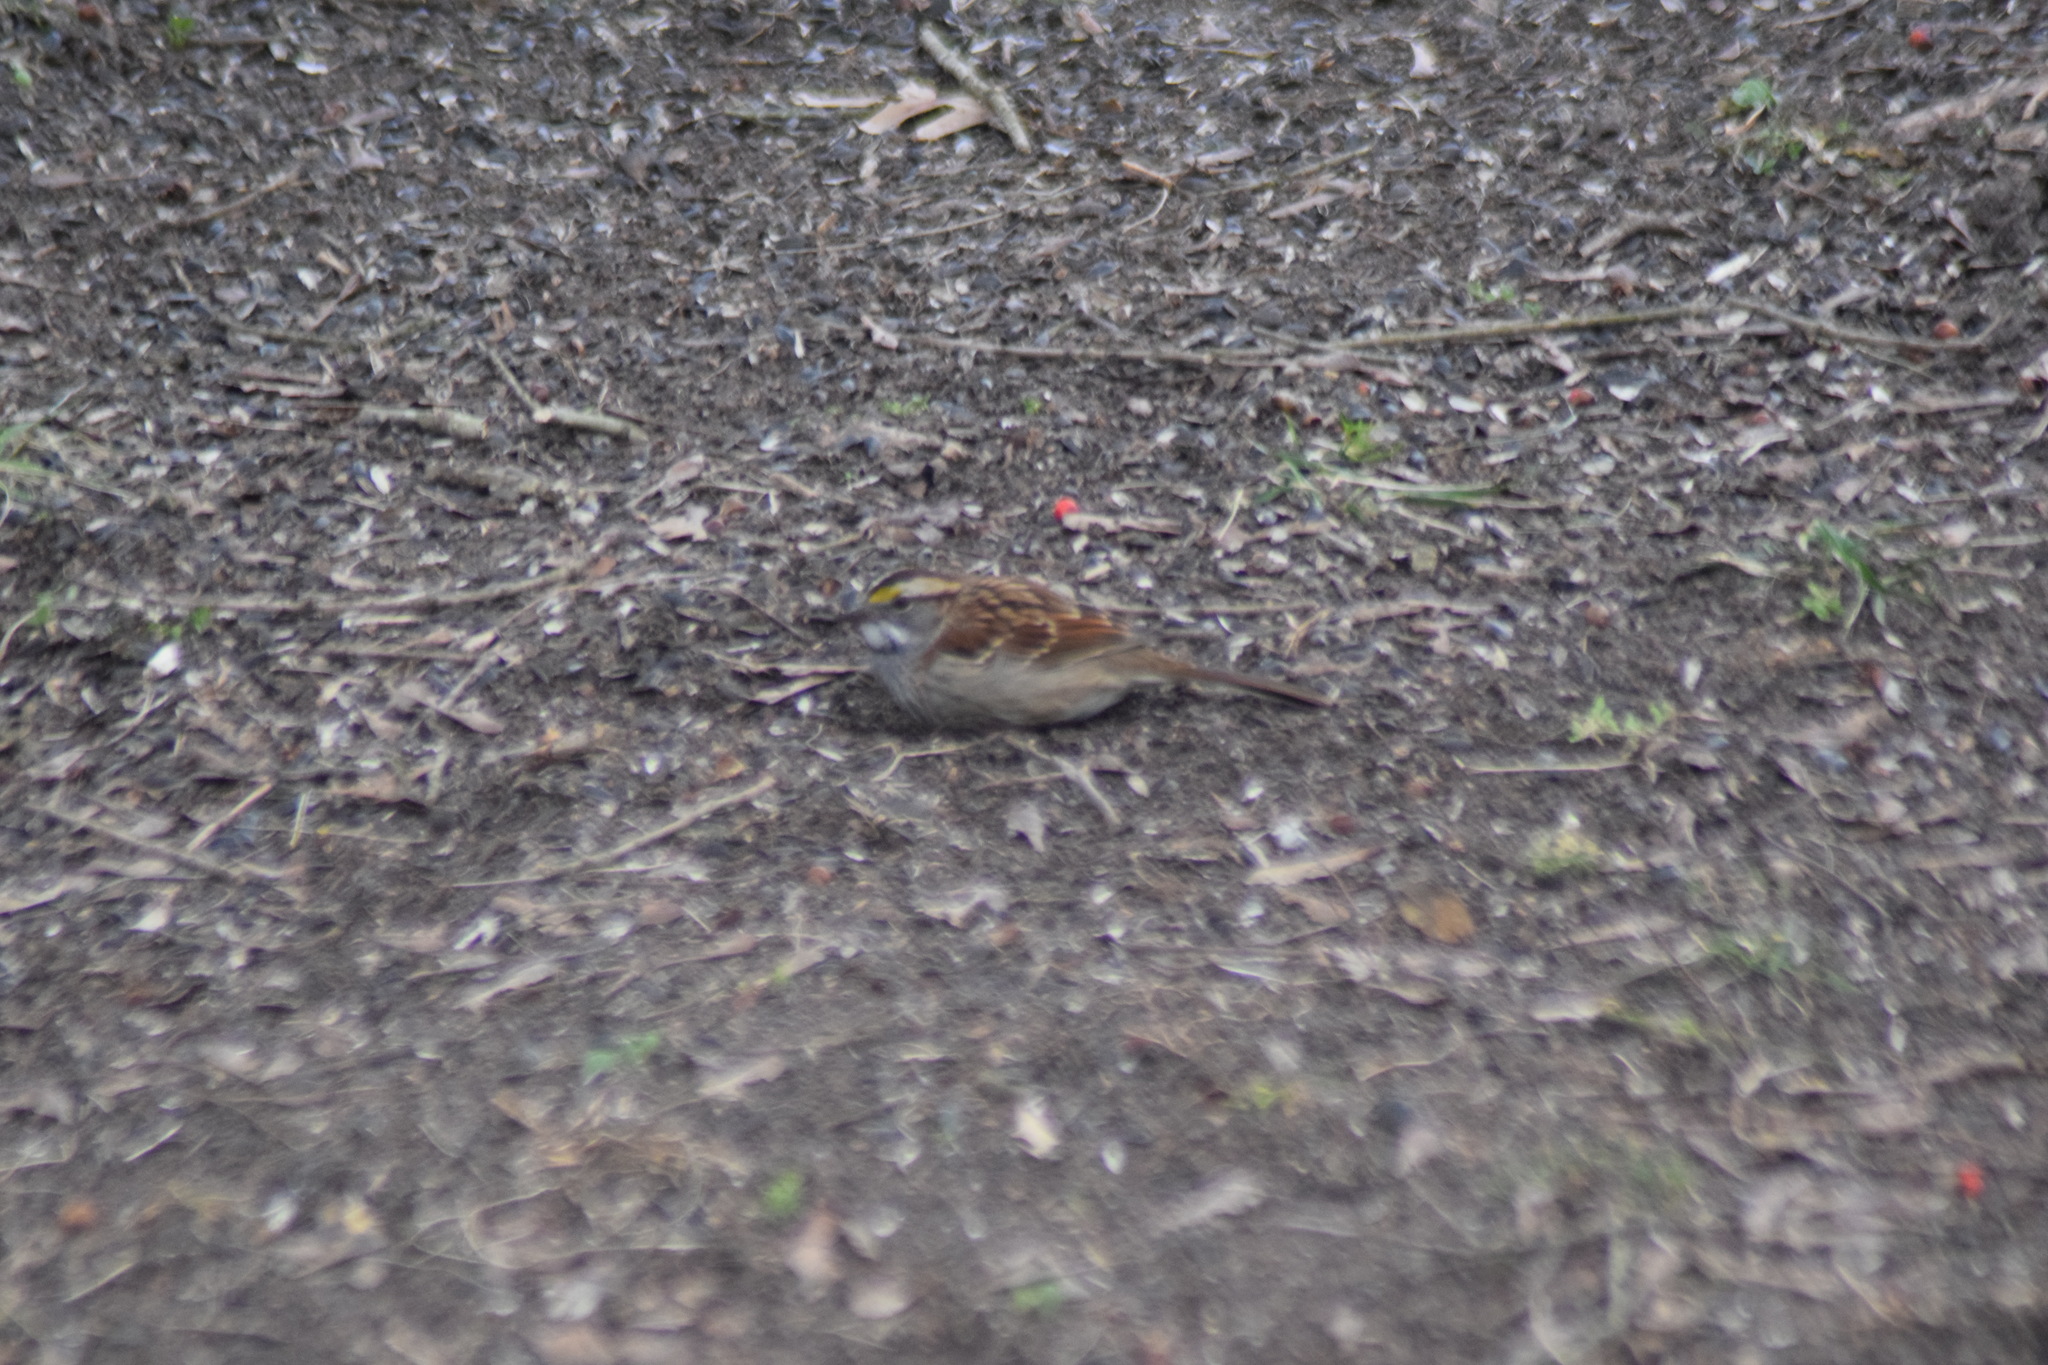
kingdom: Animalia
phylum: Chordata
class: Aves
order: Passeriformes
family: Passerellidae
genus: Zonotrichia
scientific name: Zonotrichia albicollis
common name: White-throated sparrow
